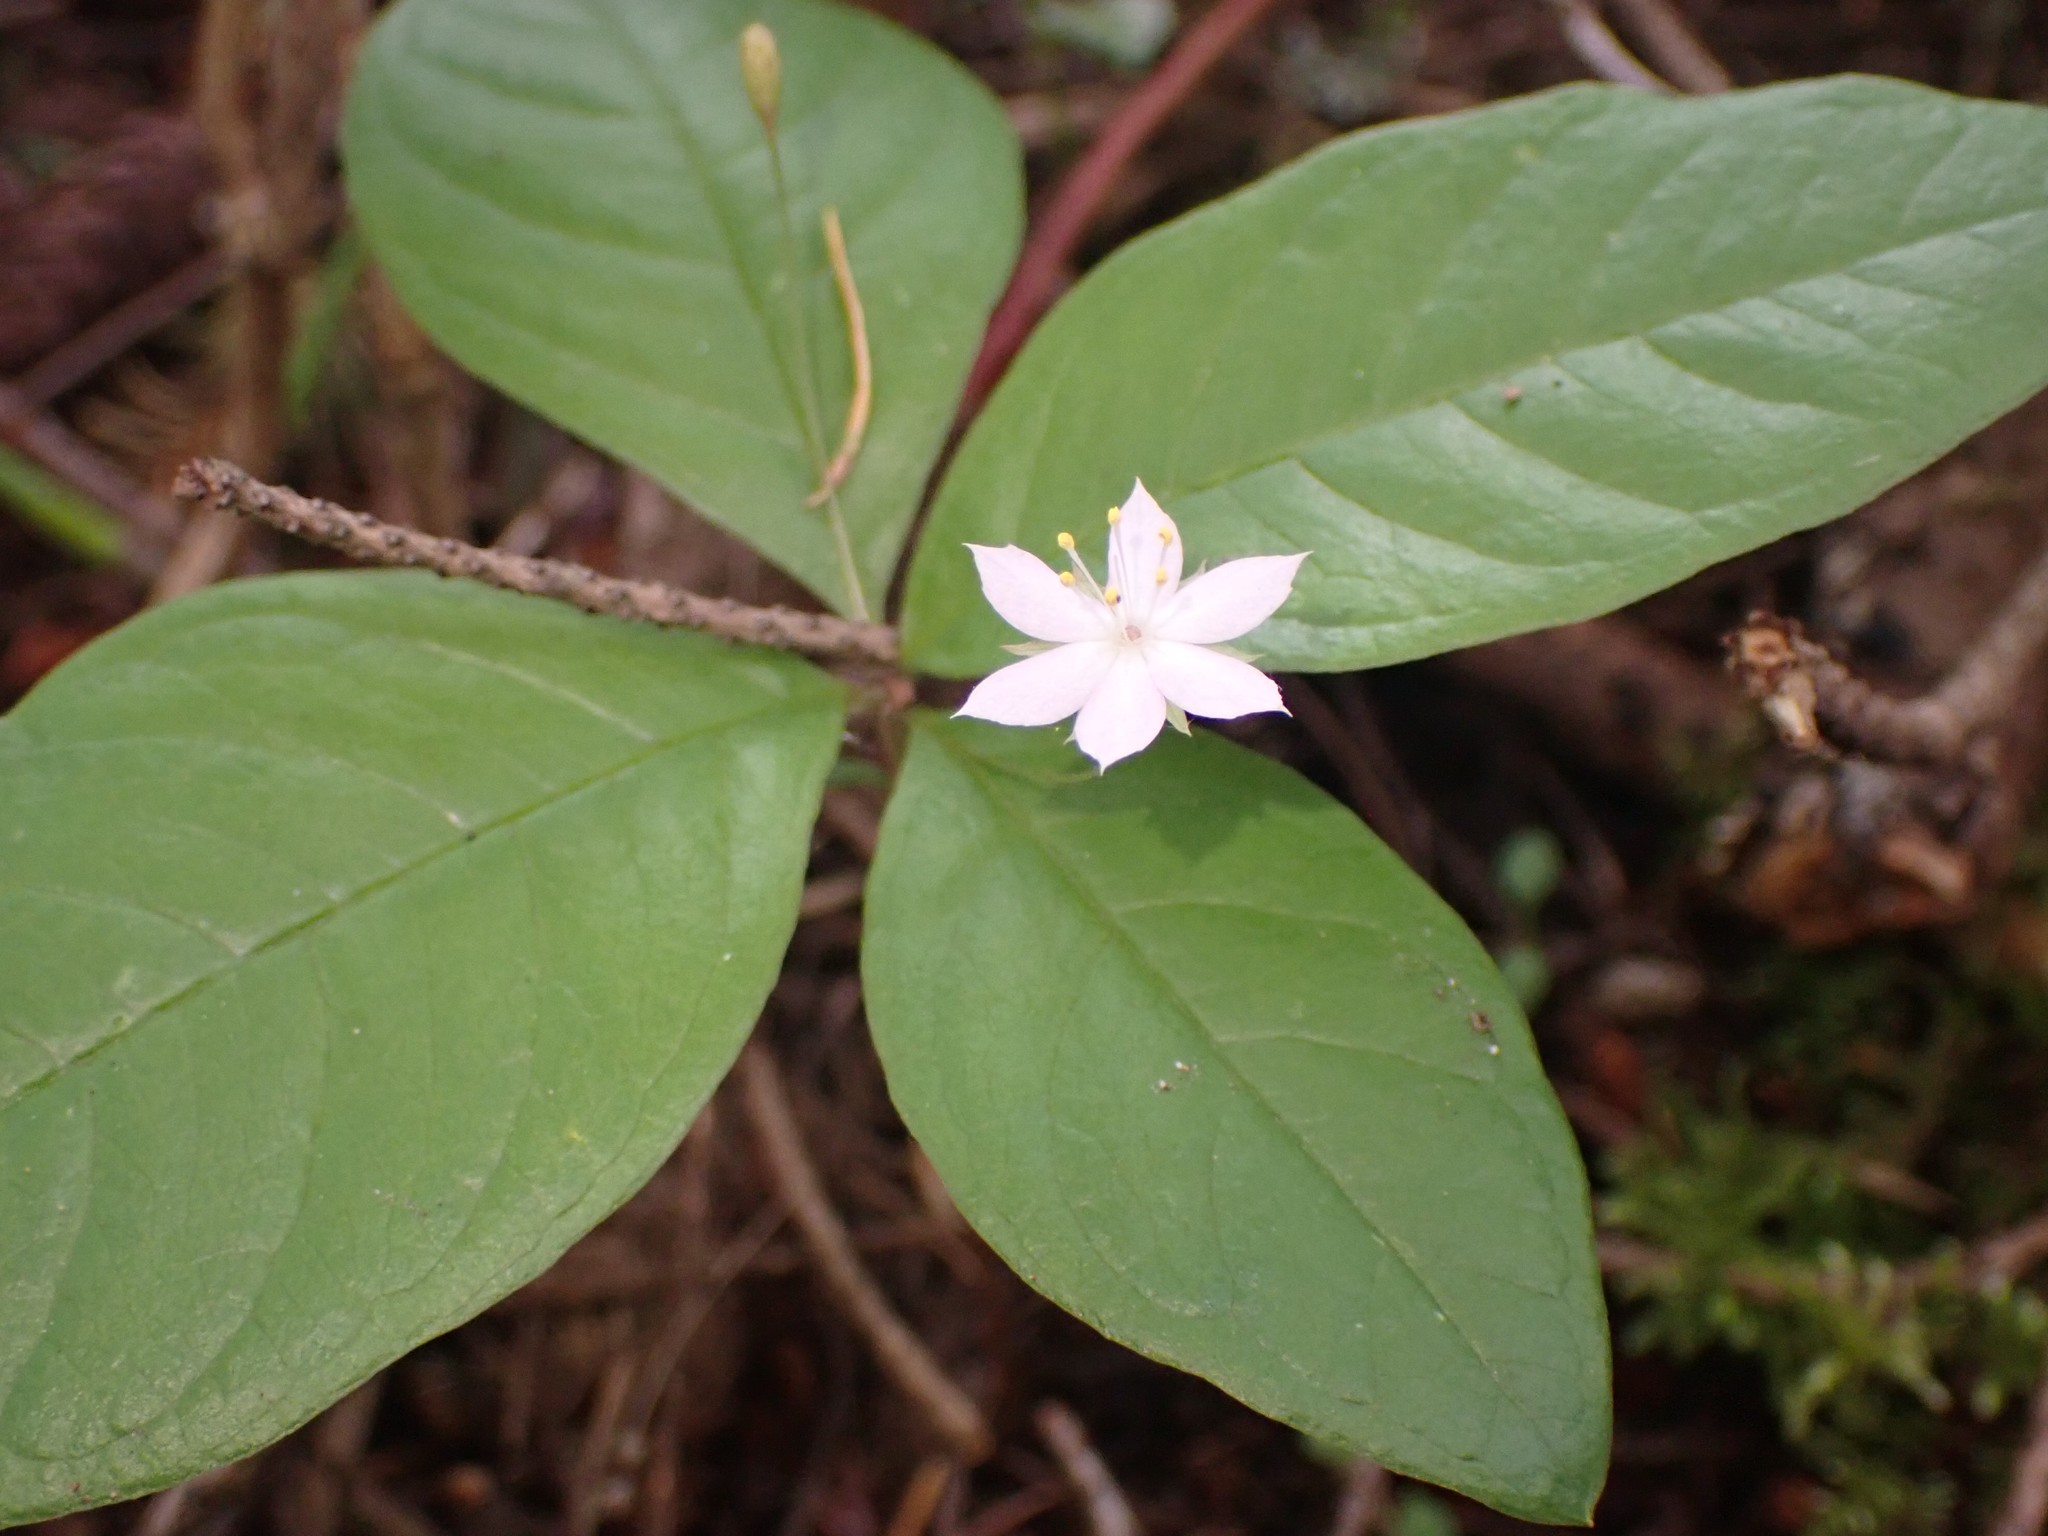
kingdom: Plantae
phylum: Tracheophyta
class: Magnoliopsida
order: Ericales
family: Primulaceae
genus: Lysimachia
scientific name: Lysimachia latifolia
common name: Pacific starflower
